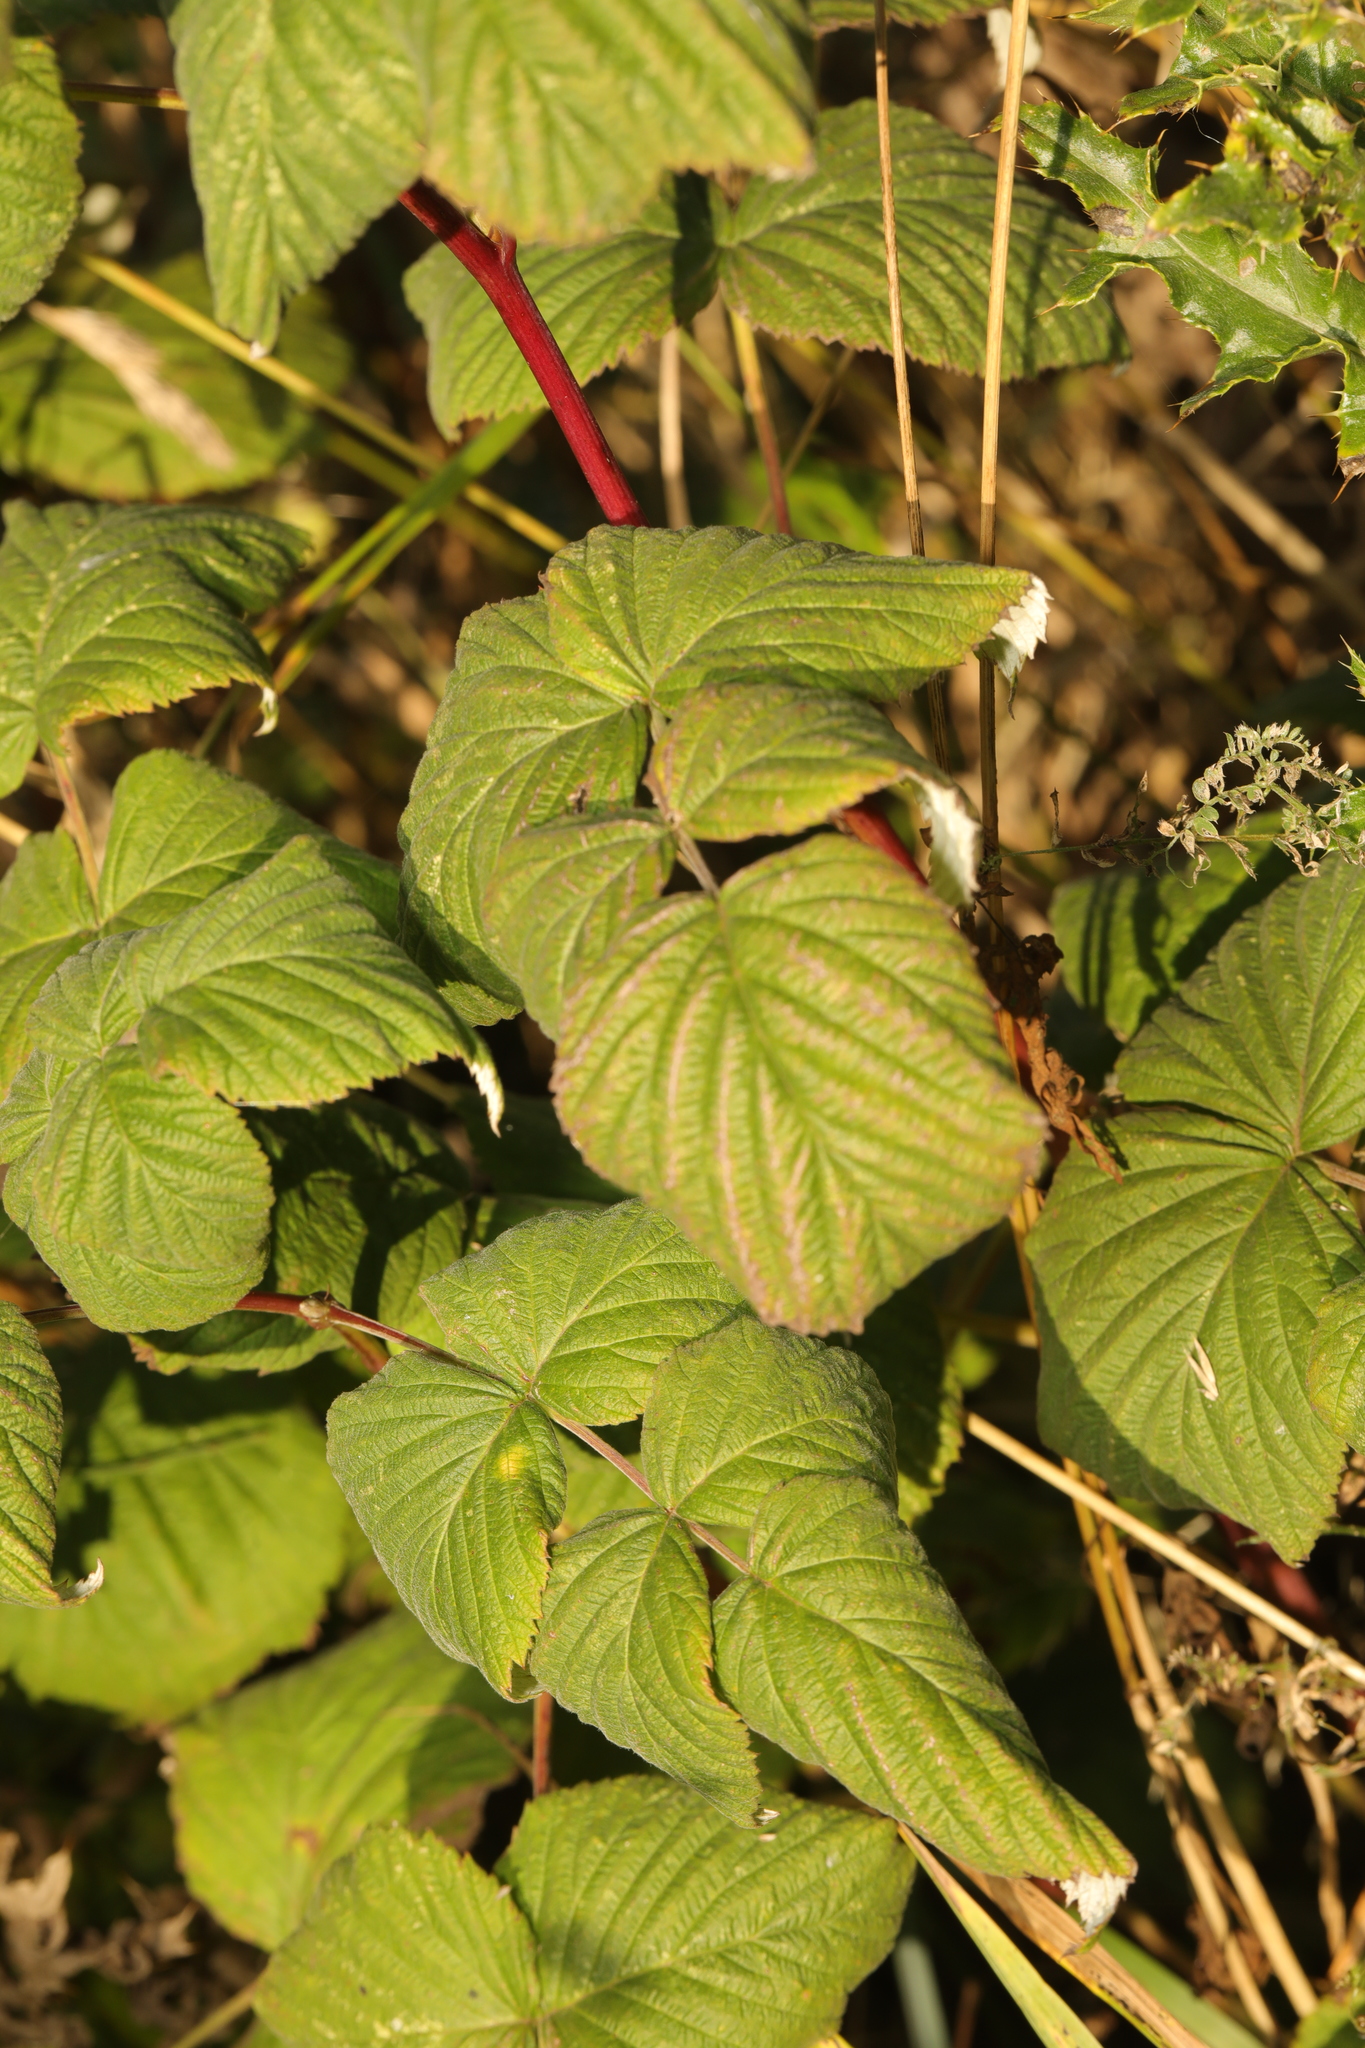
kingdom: Plantae
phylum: Tracheophyta
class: Magnoliopsida
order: Rosales
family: Rosaceae
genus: Rubus
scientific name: Rubus idaeus
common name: Raspberry
